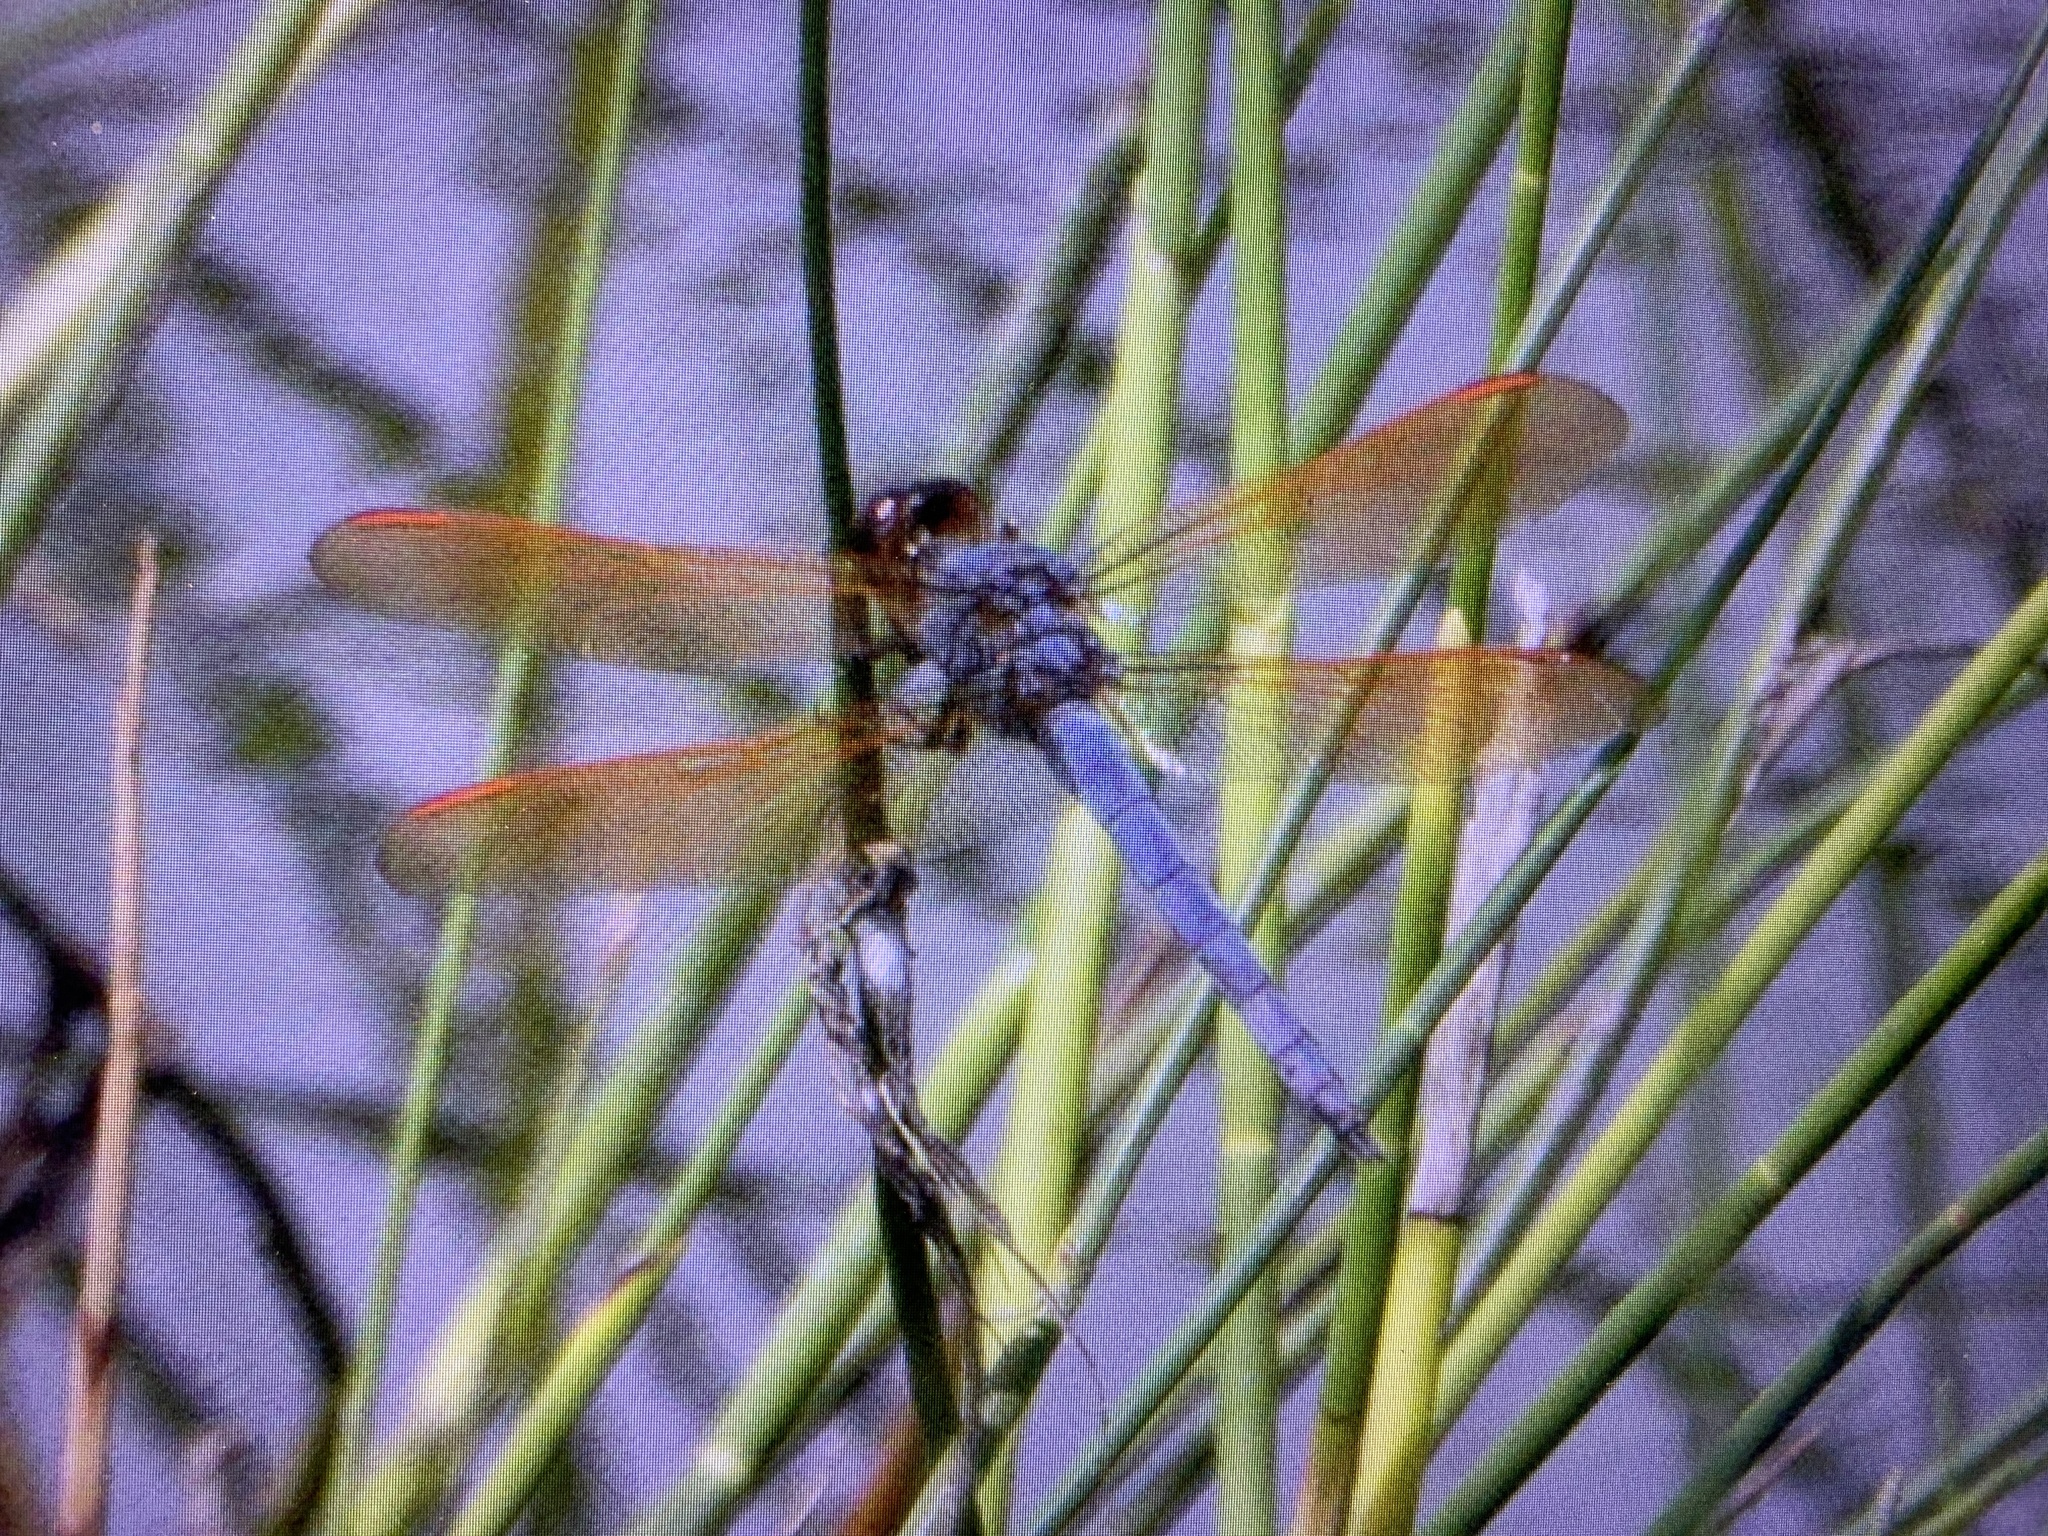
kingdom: Animalia
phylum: Arthropoda
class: Insecta
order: Odonata
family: Libellulidae
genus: Libellula
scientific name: Libellula jesseana
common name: Purple skimmer
